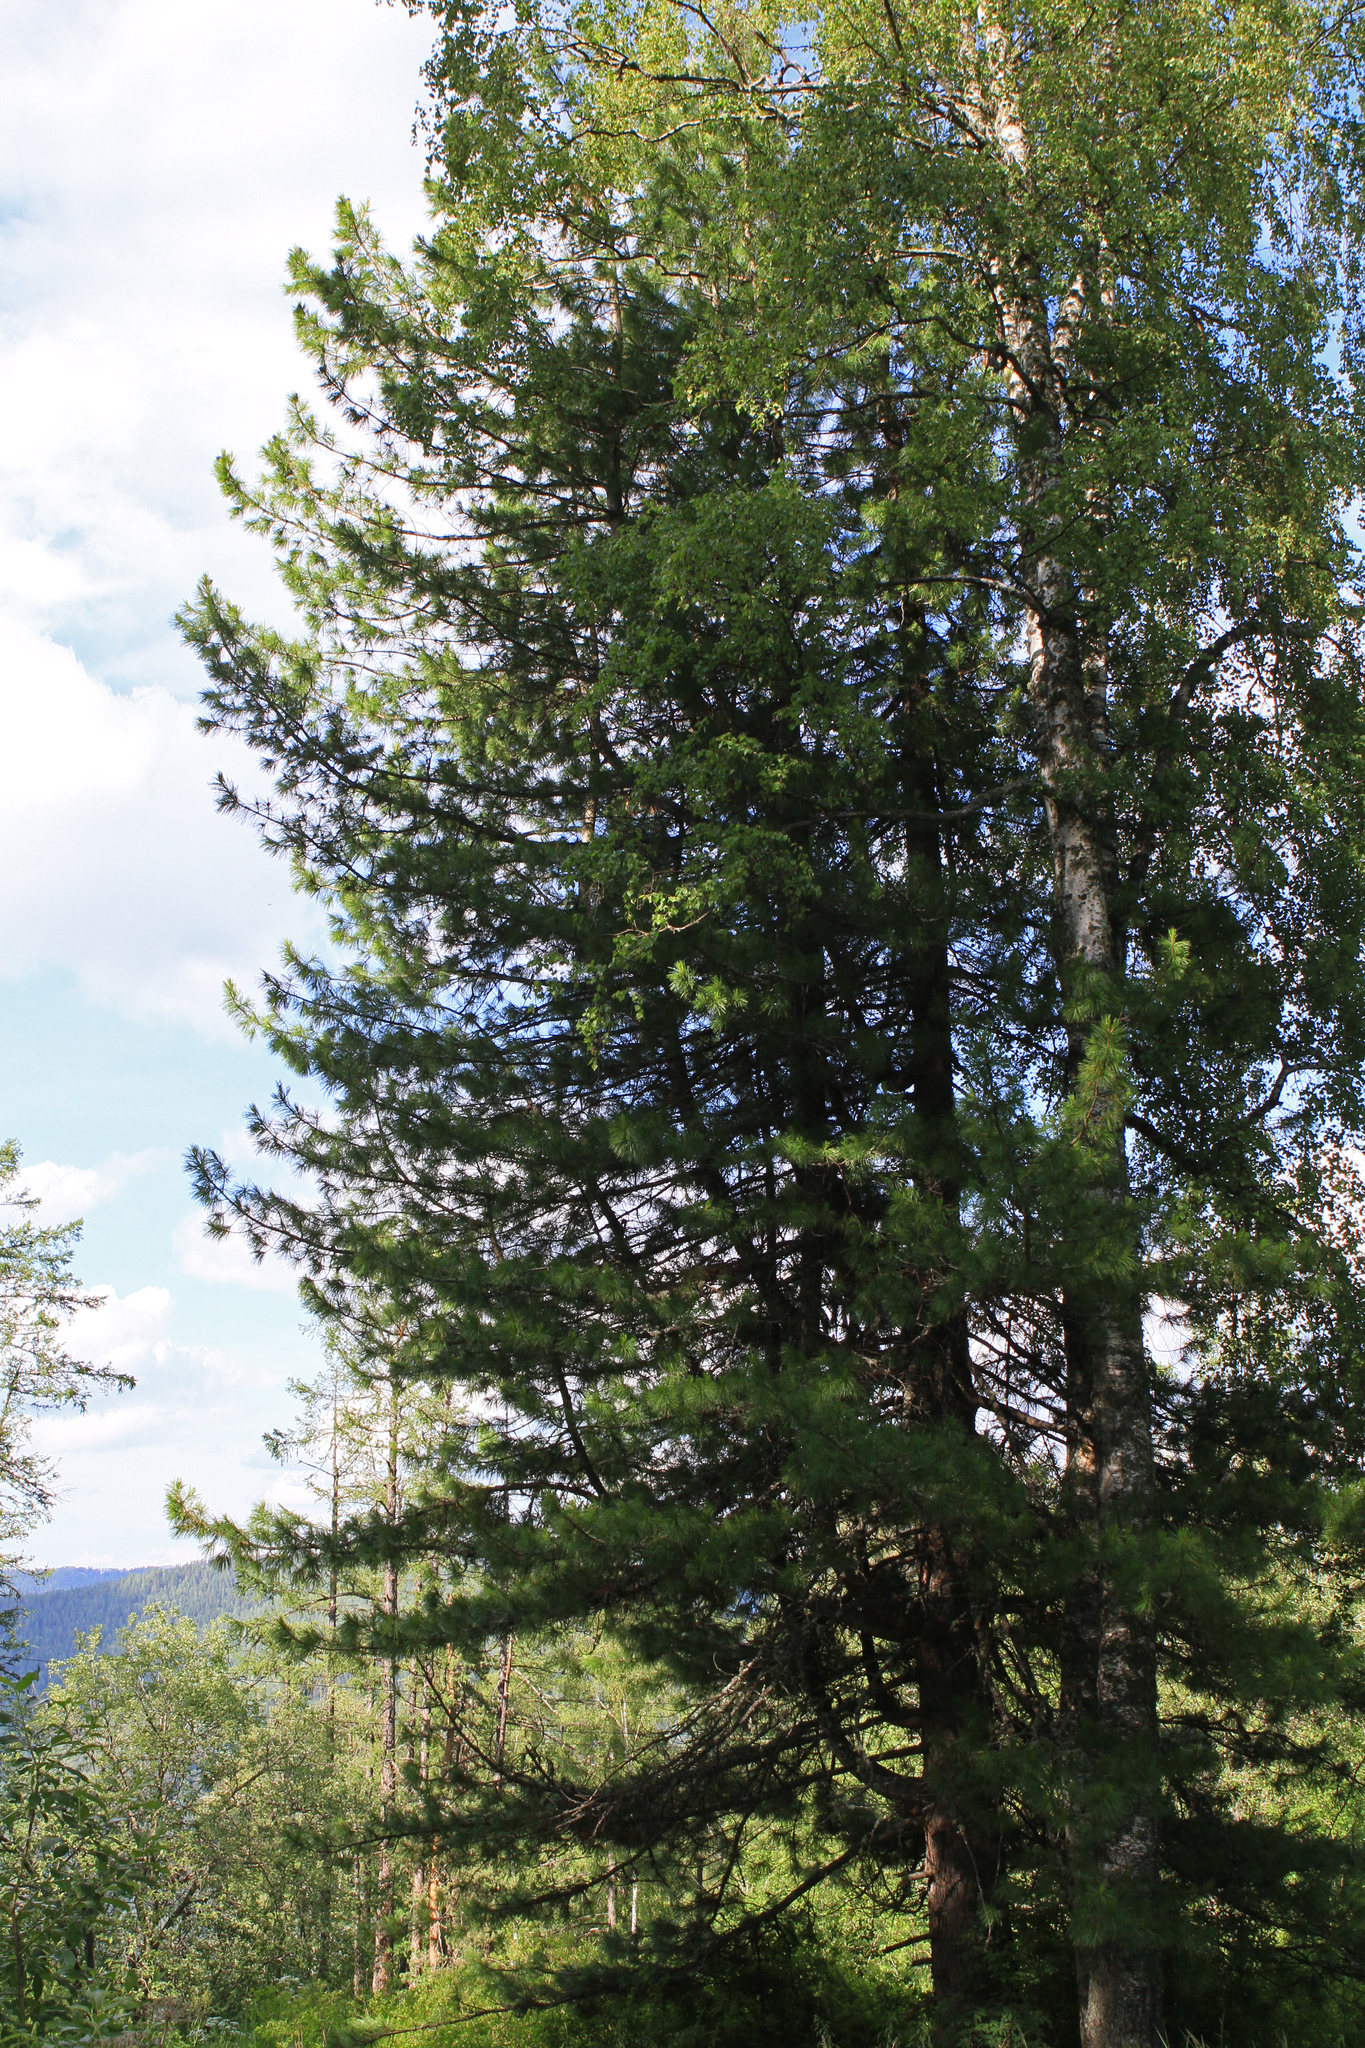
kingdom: Plantae
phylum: Tracheophyta
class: Pinopsida
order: Pinales
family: Pinaceae
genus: Pinus
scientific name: Pinus sibirica
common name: Siberian pine
